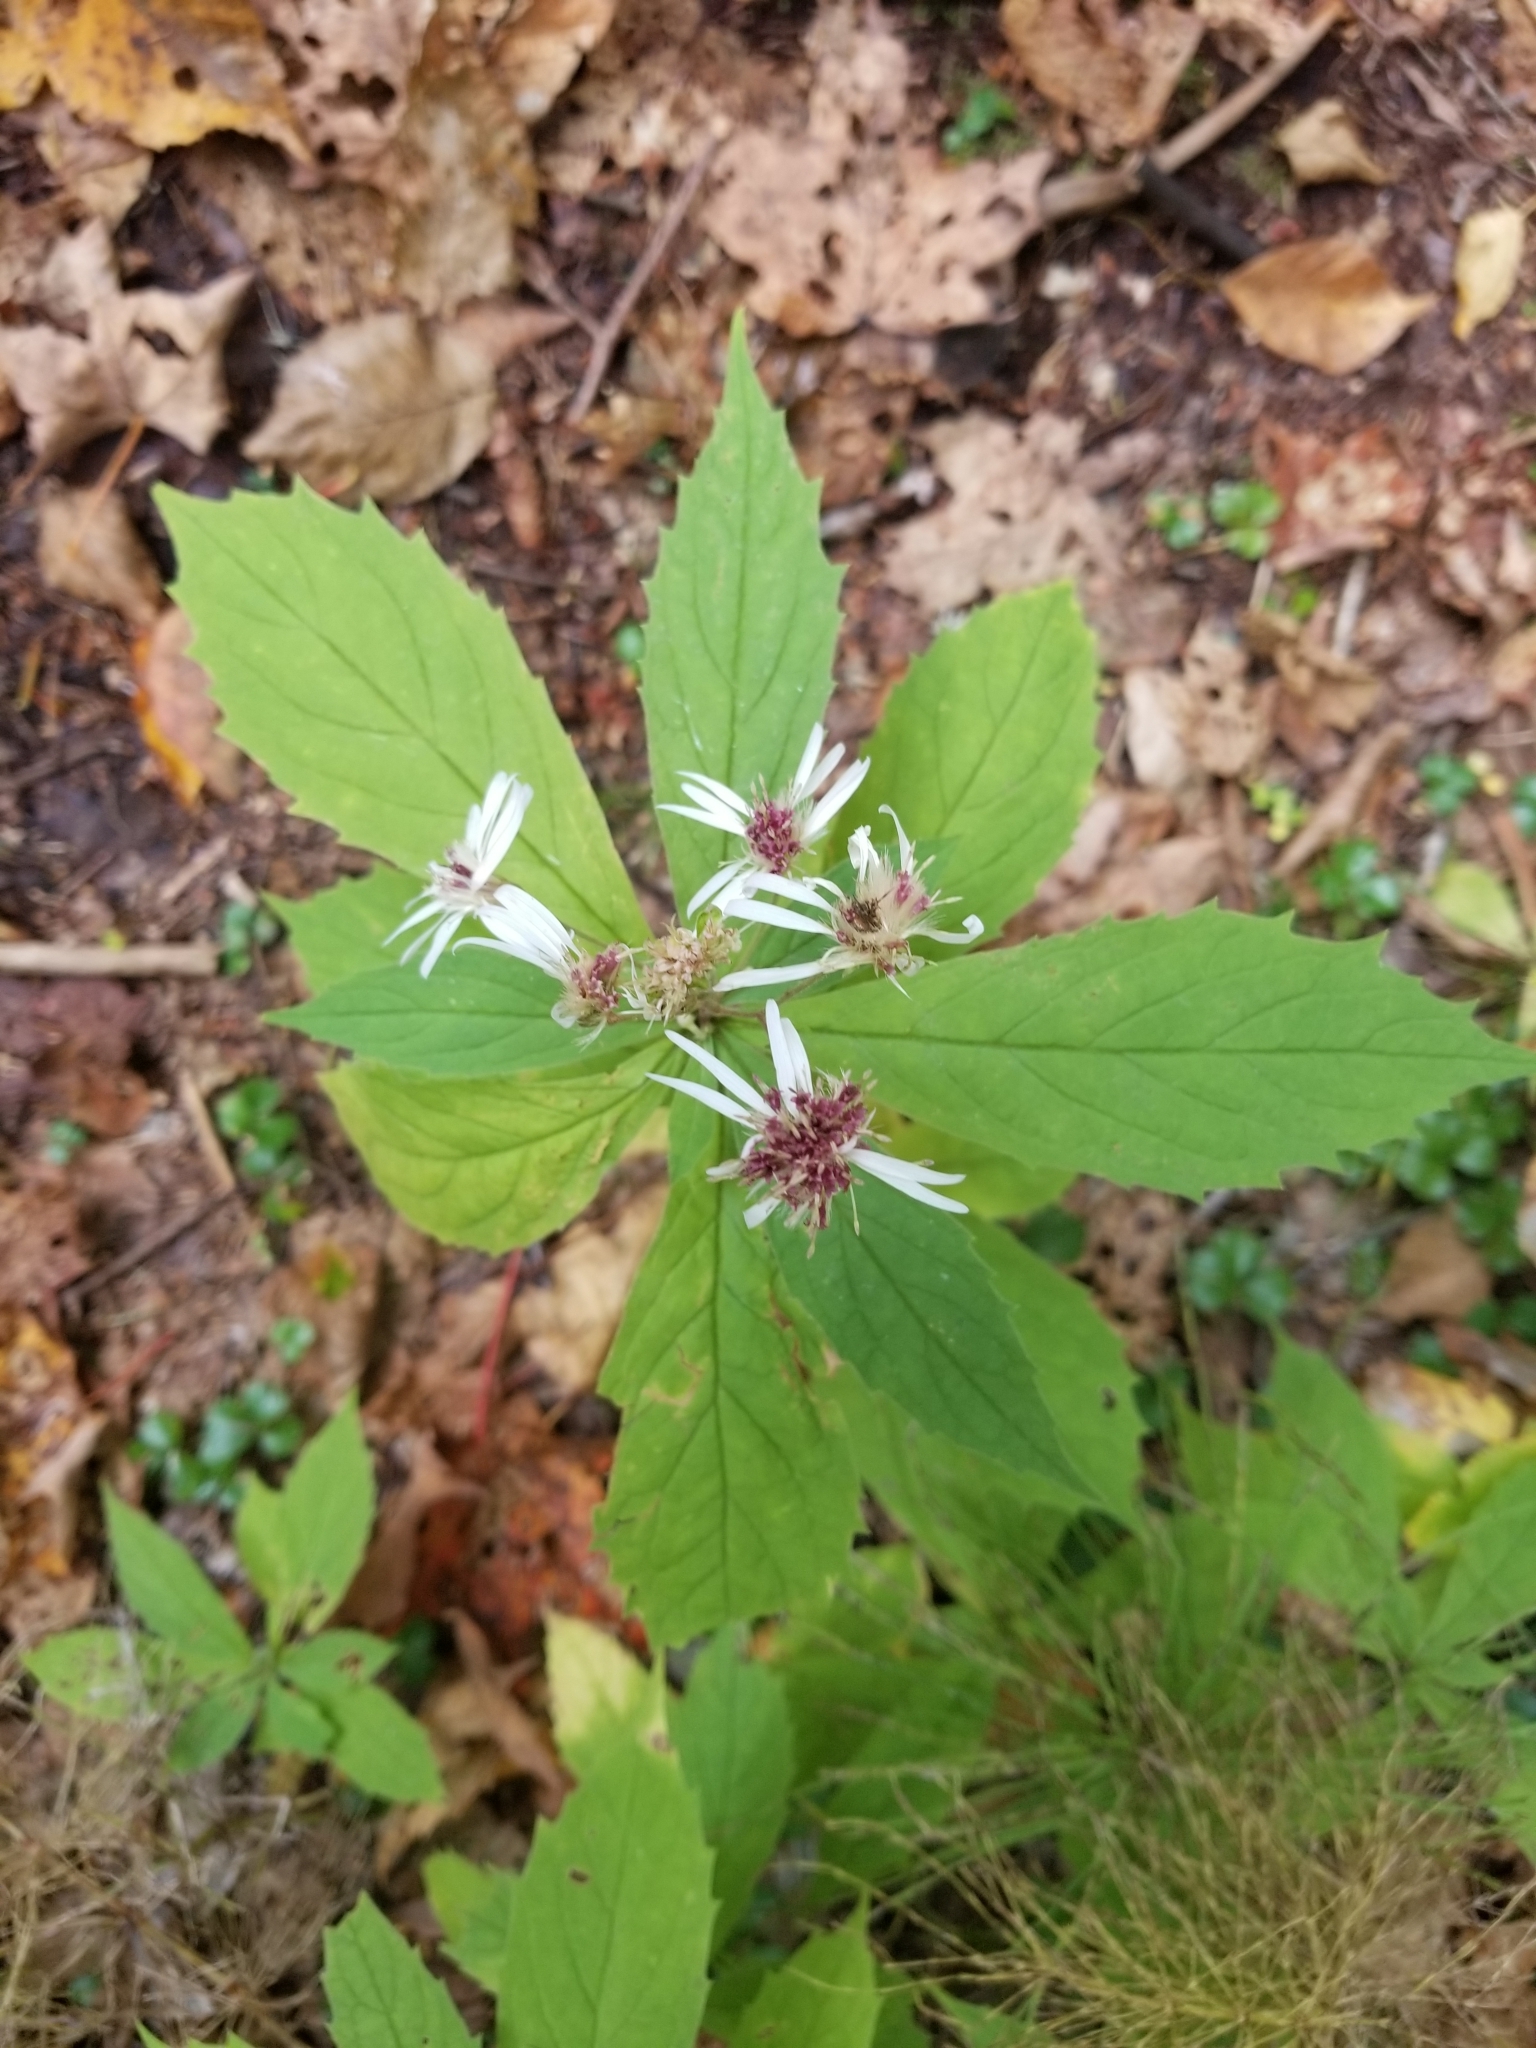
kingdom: Plantae
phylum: Tracheophyta
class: Magnoliopsida
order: Asterales
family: Asteraceae
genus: Oclemena
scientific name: Oclemena acuminata
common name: Mountain aster
